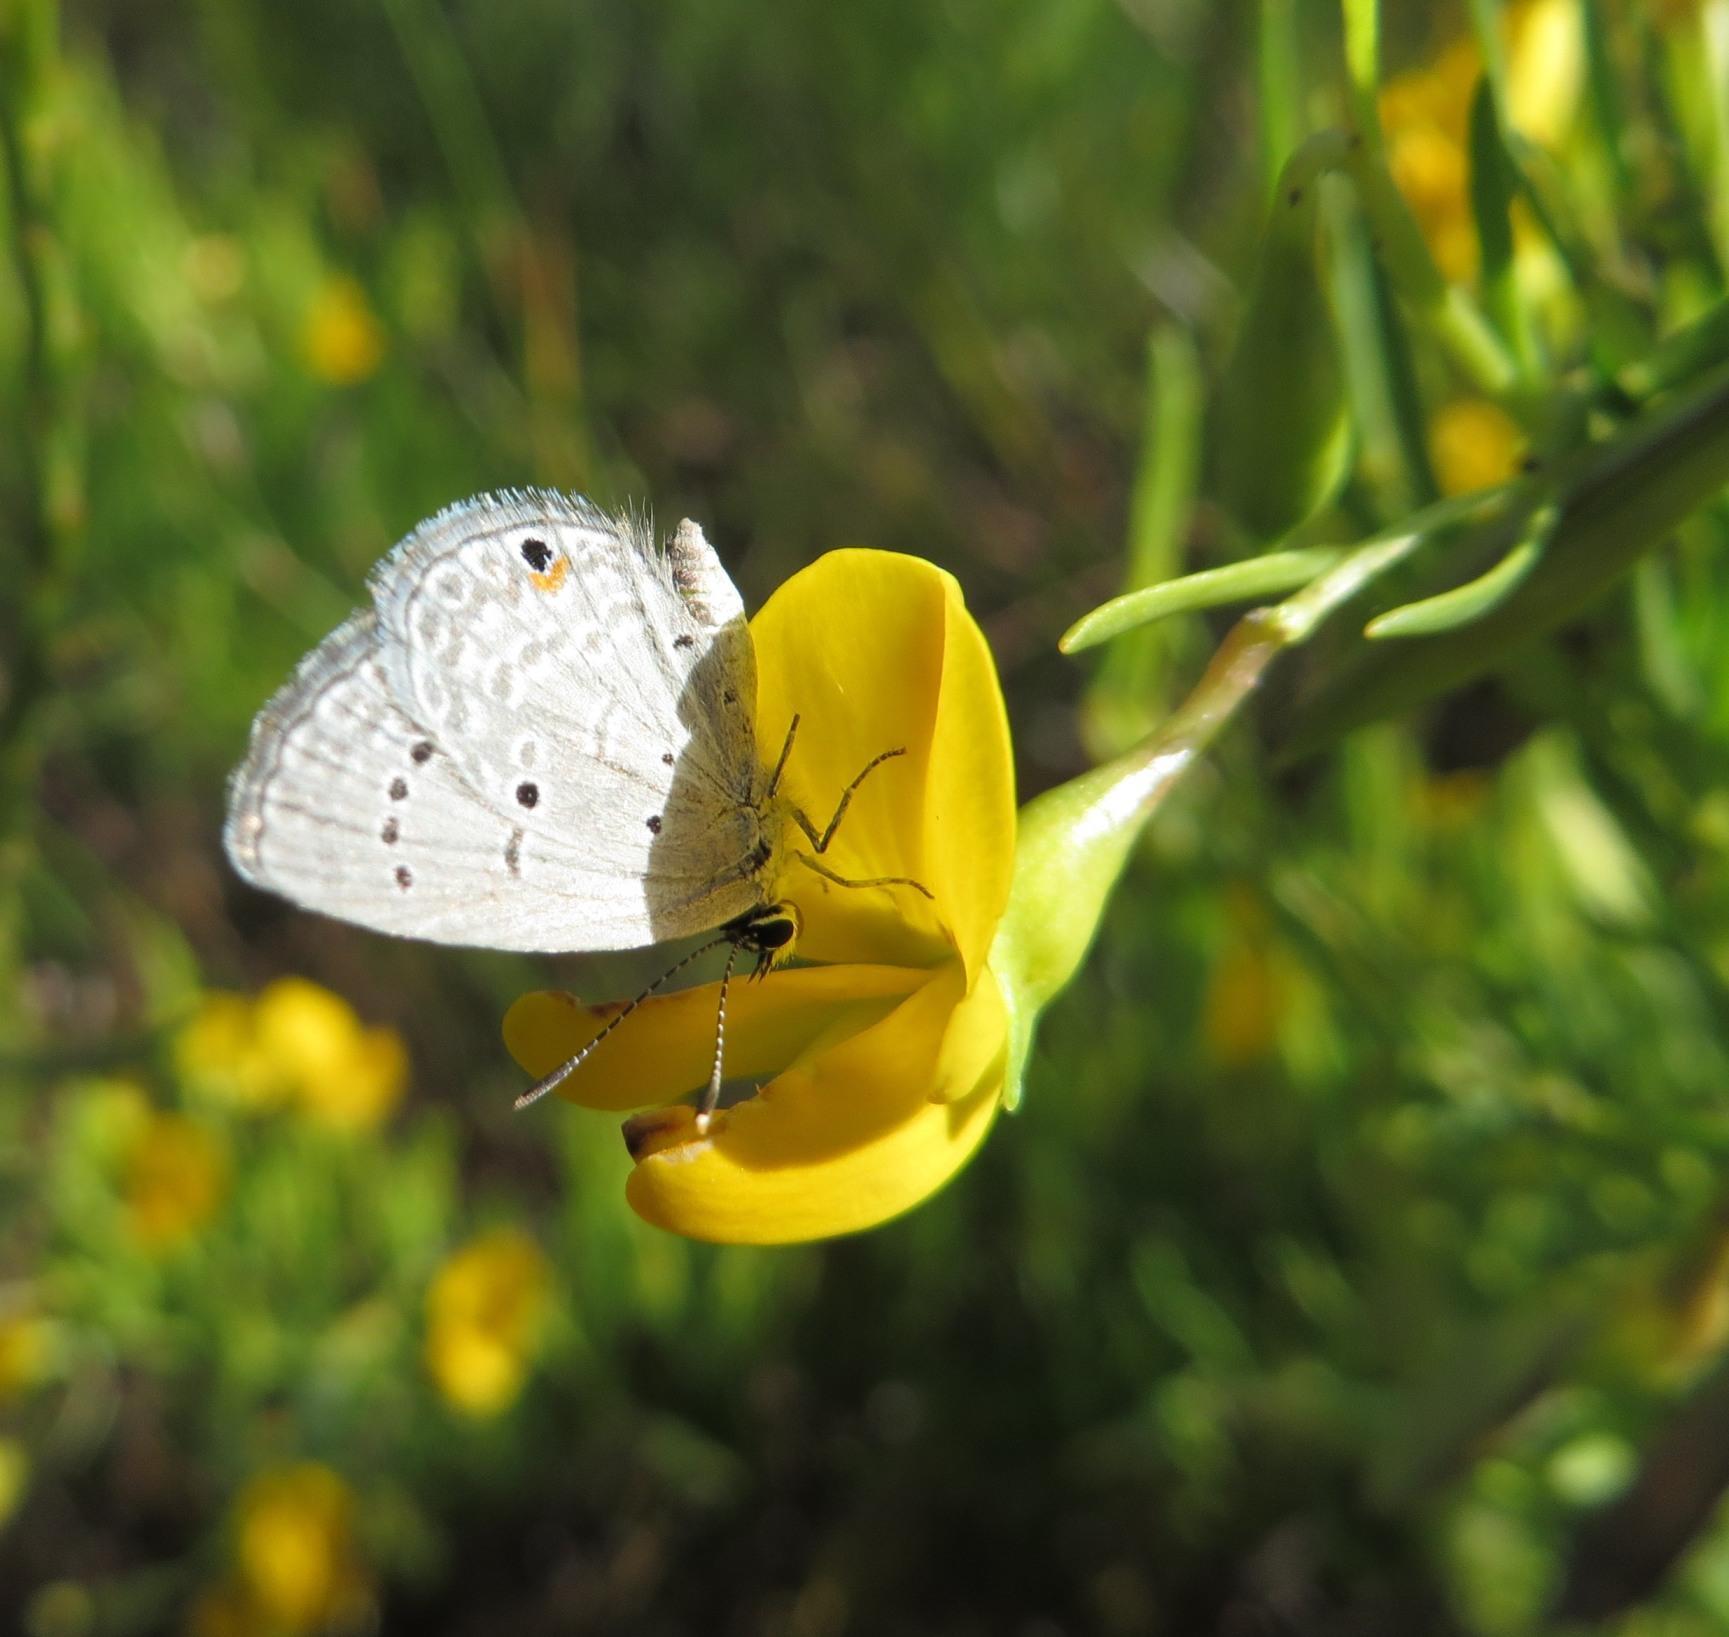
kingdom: Animalia
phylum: Arthropoda
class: Insecta
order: Lepidoptera
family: Lycaenidae
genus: Eicochrysops
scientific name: Eicochrysops messapus
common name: Cupreous blue
